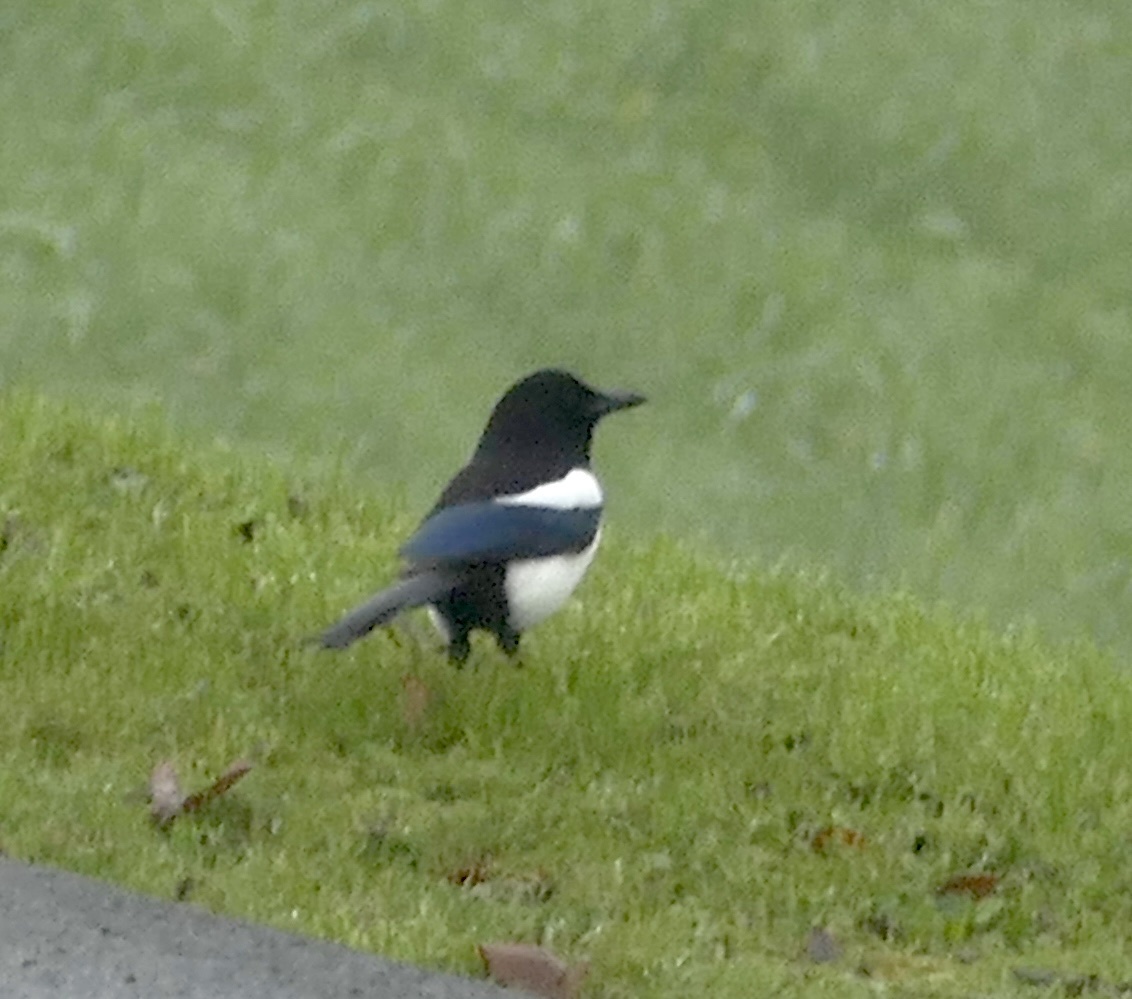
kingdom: Animalia
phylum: Chordata
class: Aves
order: Passeriformes
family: Corvidae
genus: Pica
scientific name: Pica pica
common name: Eurasian magpie
